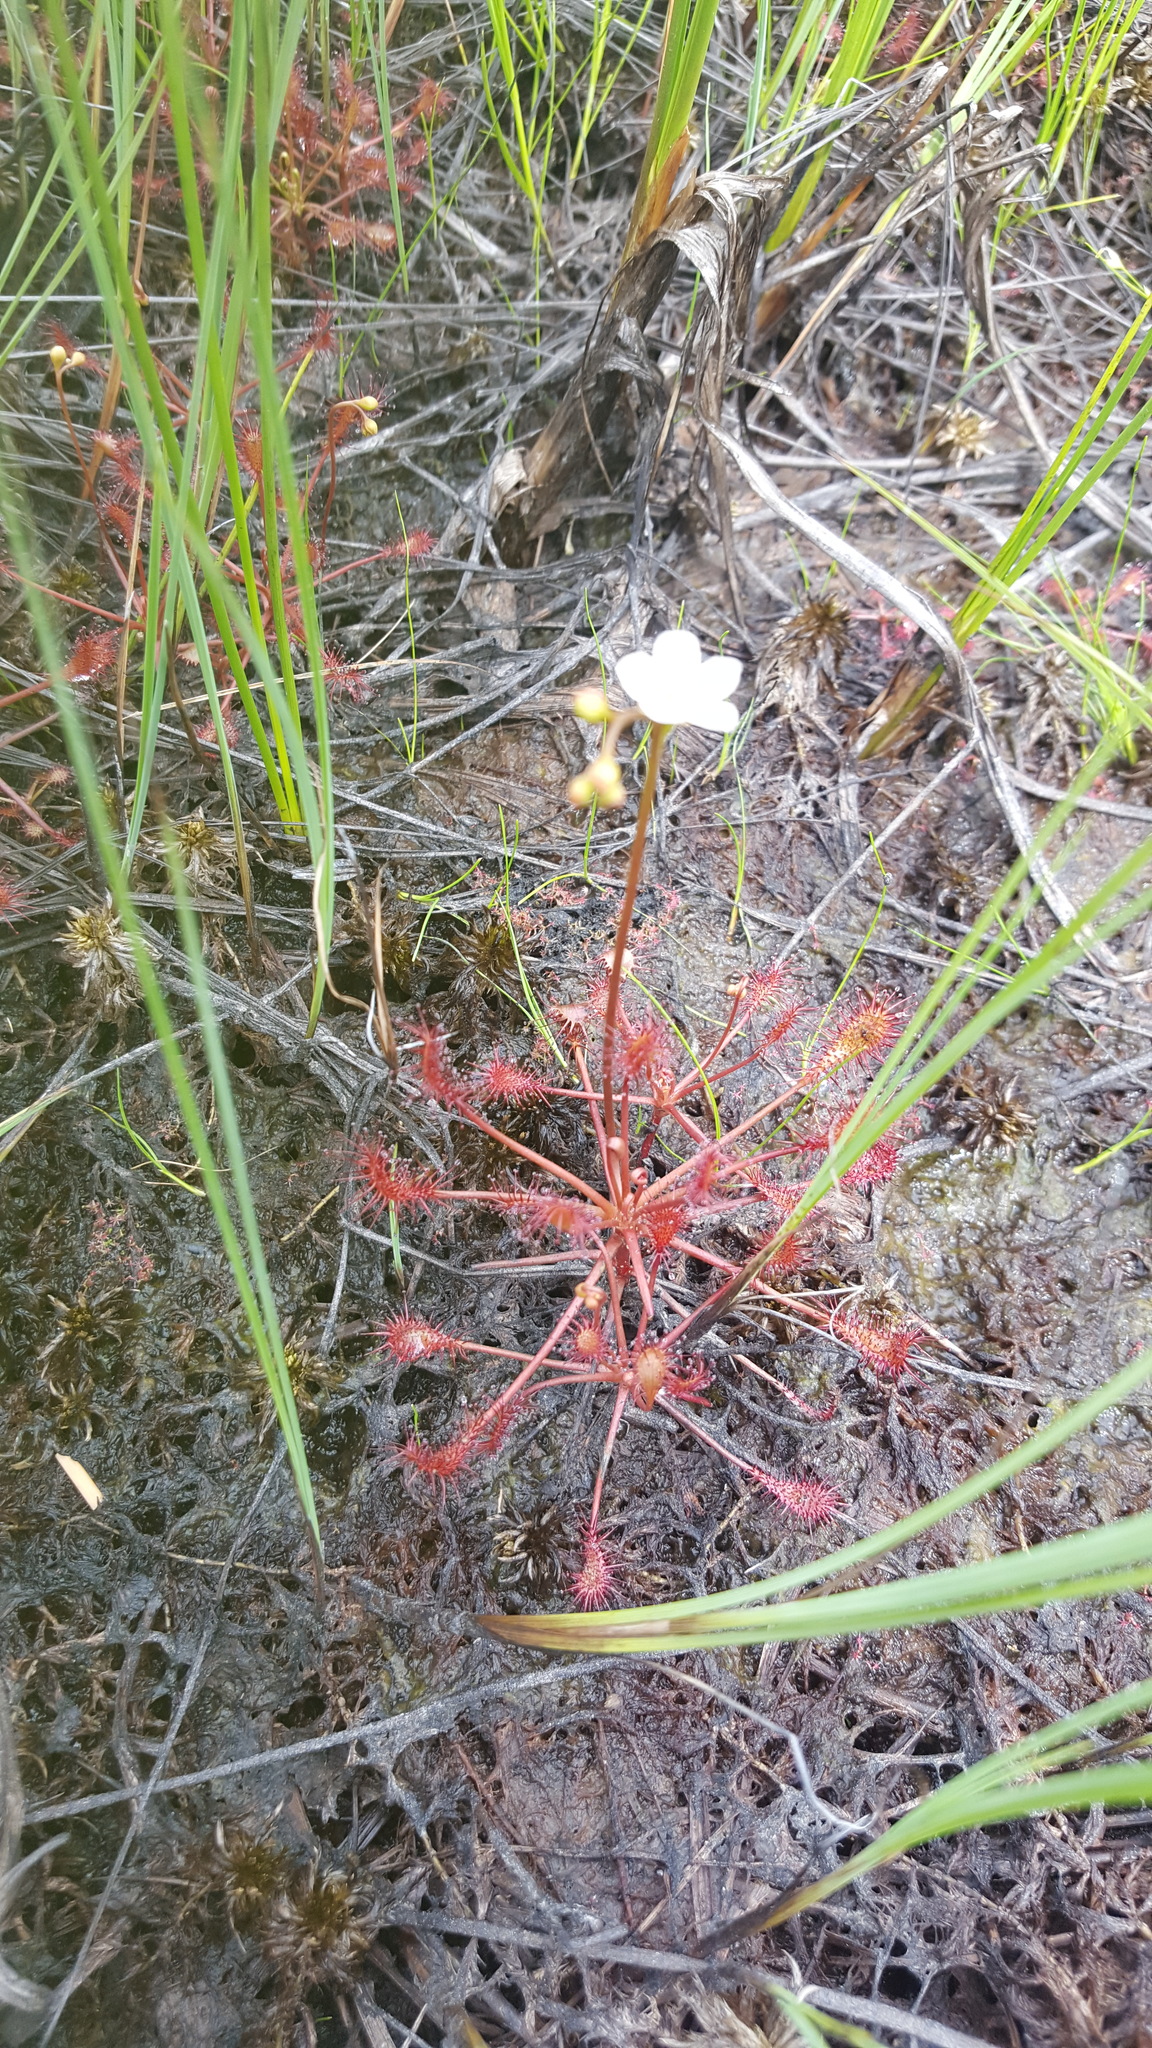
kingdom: Plantae
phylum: Tracheophyta
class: Magnoliopsida
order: Caryophyllales
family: Droseraceae
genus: Drosera
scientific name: Drosera intermedia
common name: Oblong-leaved sundew
